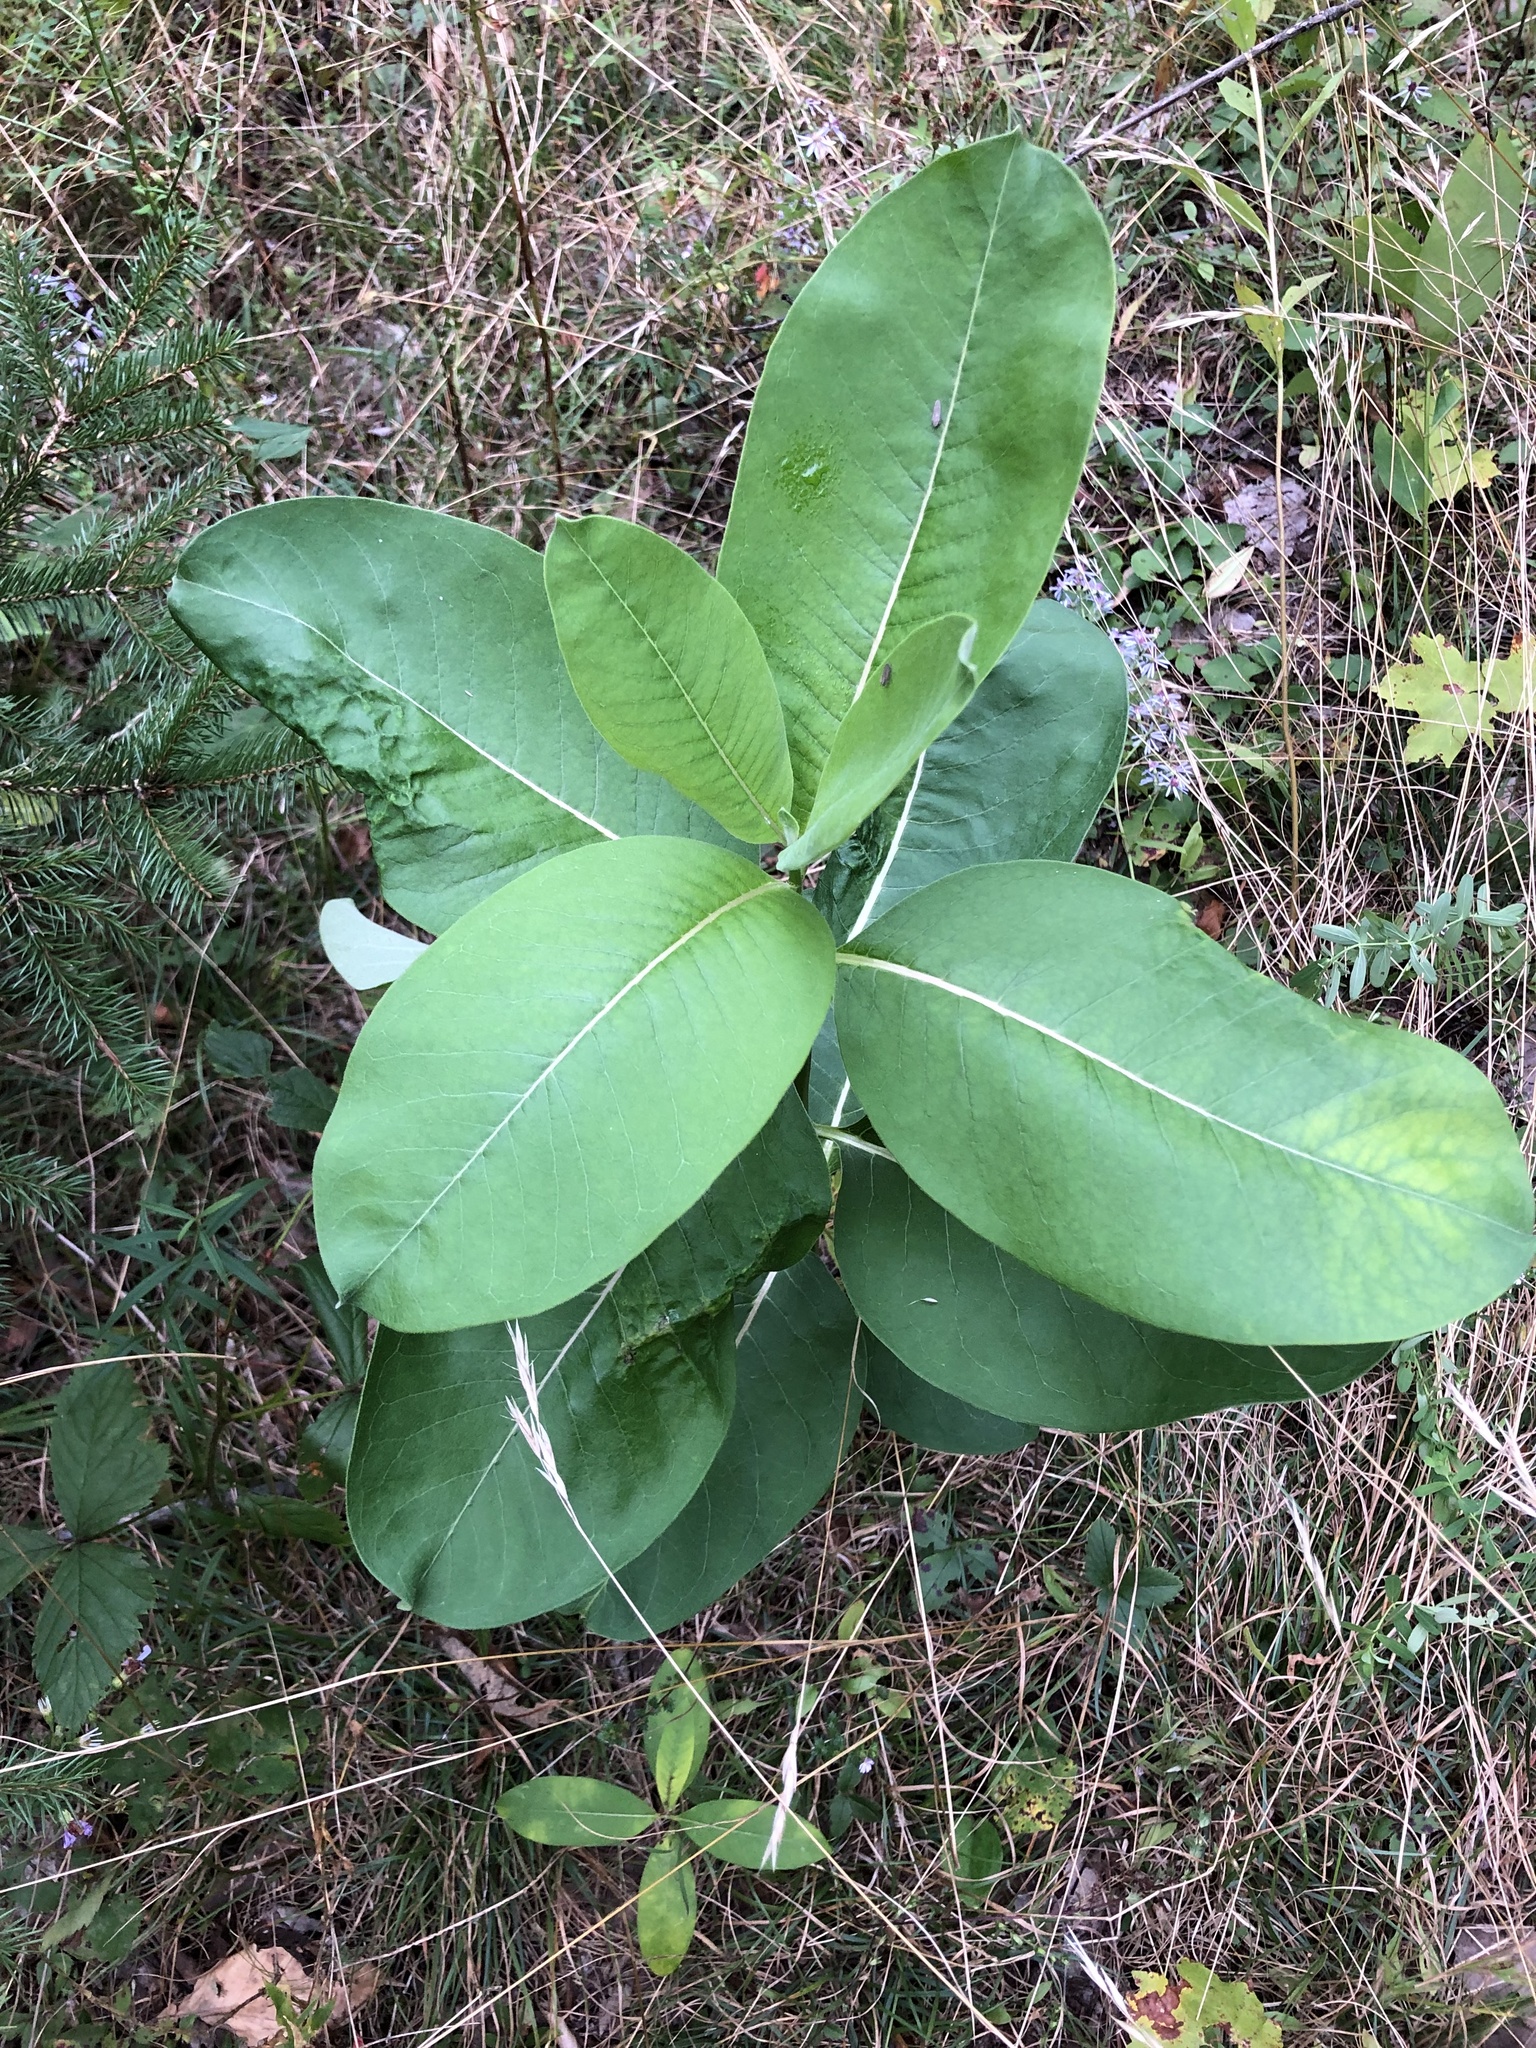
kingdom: Plantae
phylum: Tracheophyta
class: Magnoliopsida
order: Gentianales
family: Apocynaceae
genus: Asclepias
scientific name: Asclepias syriaca
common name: Common milkweed
